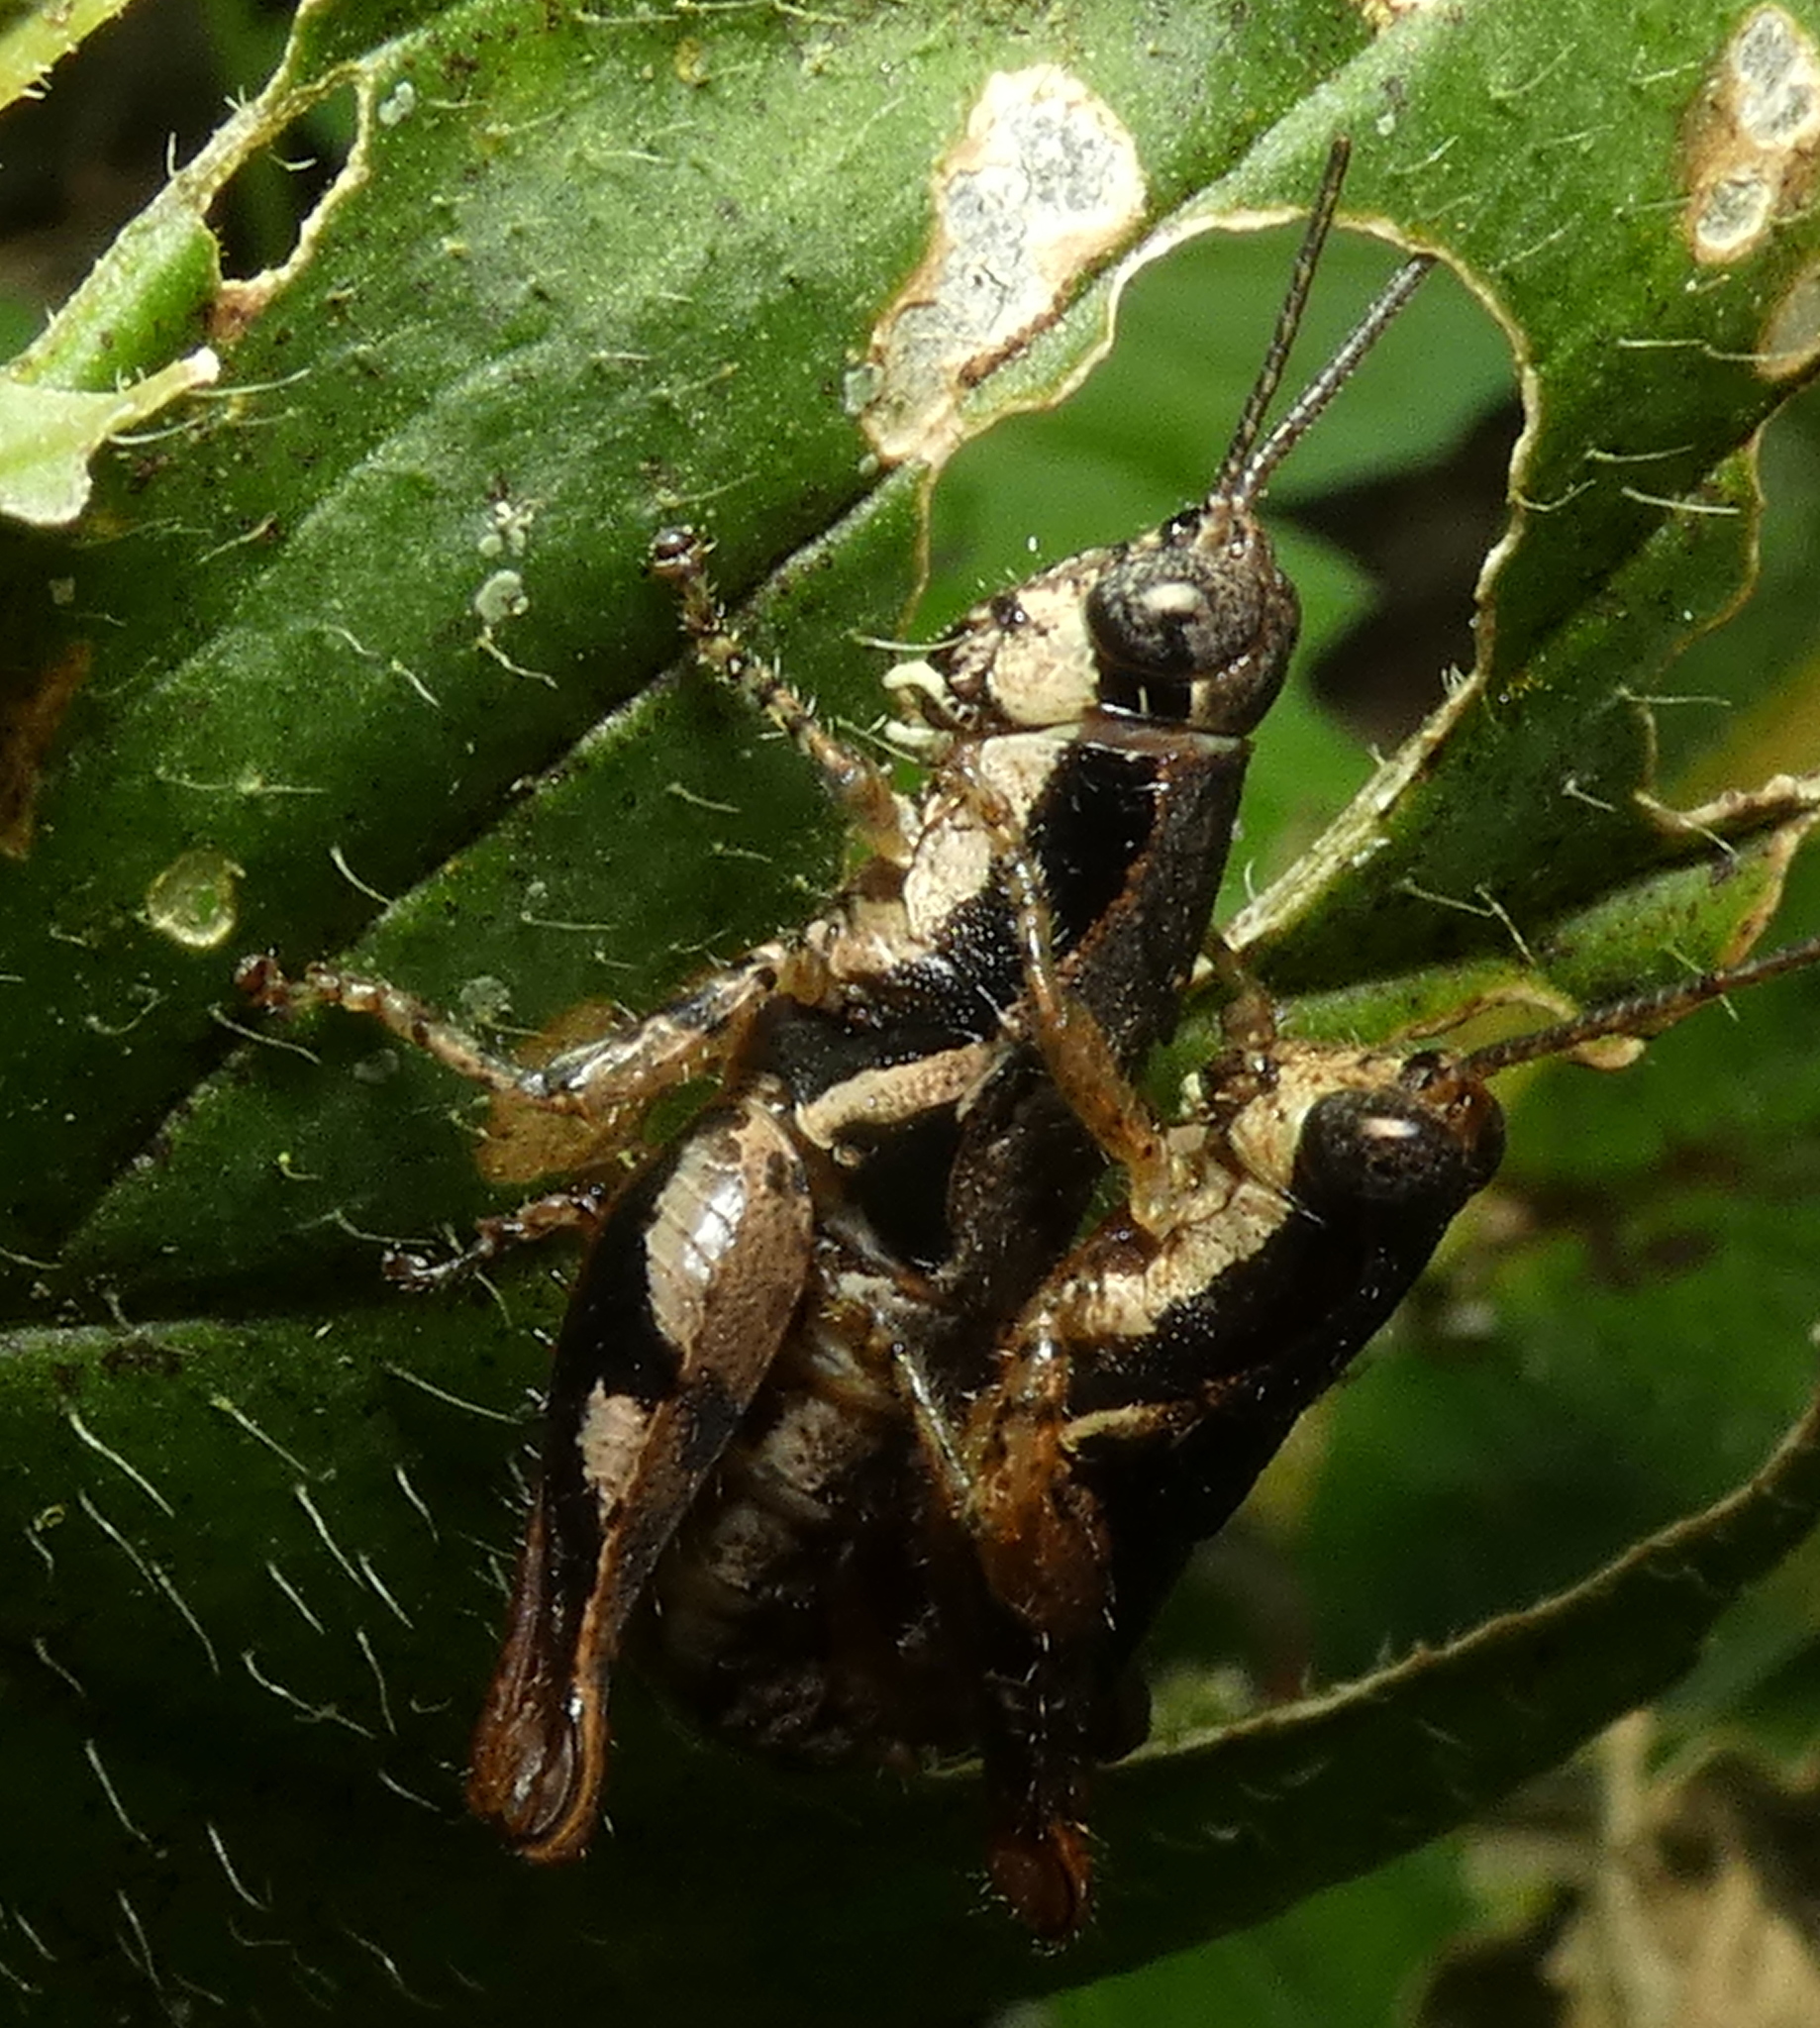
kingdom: Animalia
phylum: Arthropoda
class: Insecta
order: Orthoptera
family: Acrididae
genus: Eujivarus
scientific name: Eujivarus meridionalis
